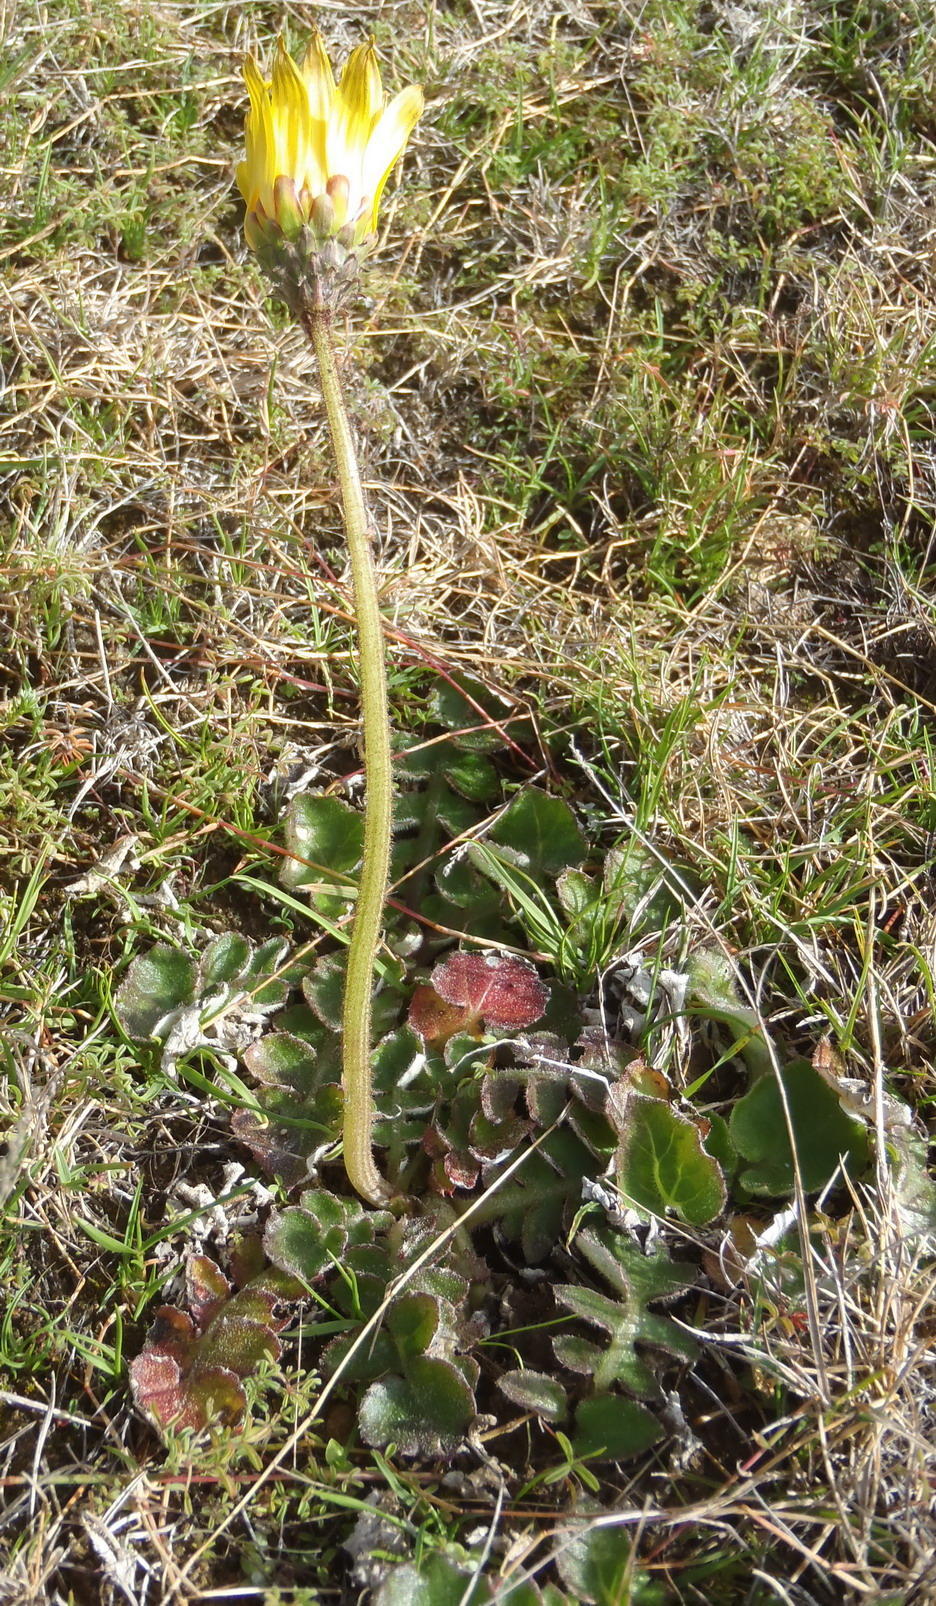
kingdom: Plantae
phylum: Tracheophyta
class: Magnoliopsida
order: Asterales
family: Asteraceae
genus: Arctotheca
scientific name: Arctotheca prostrata
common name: Capeweed
